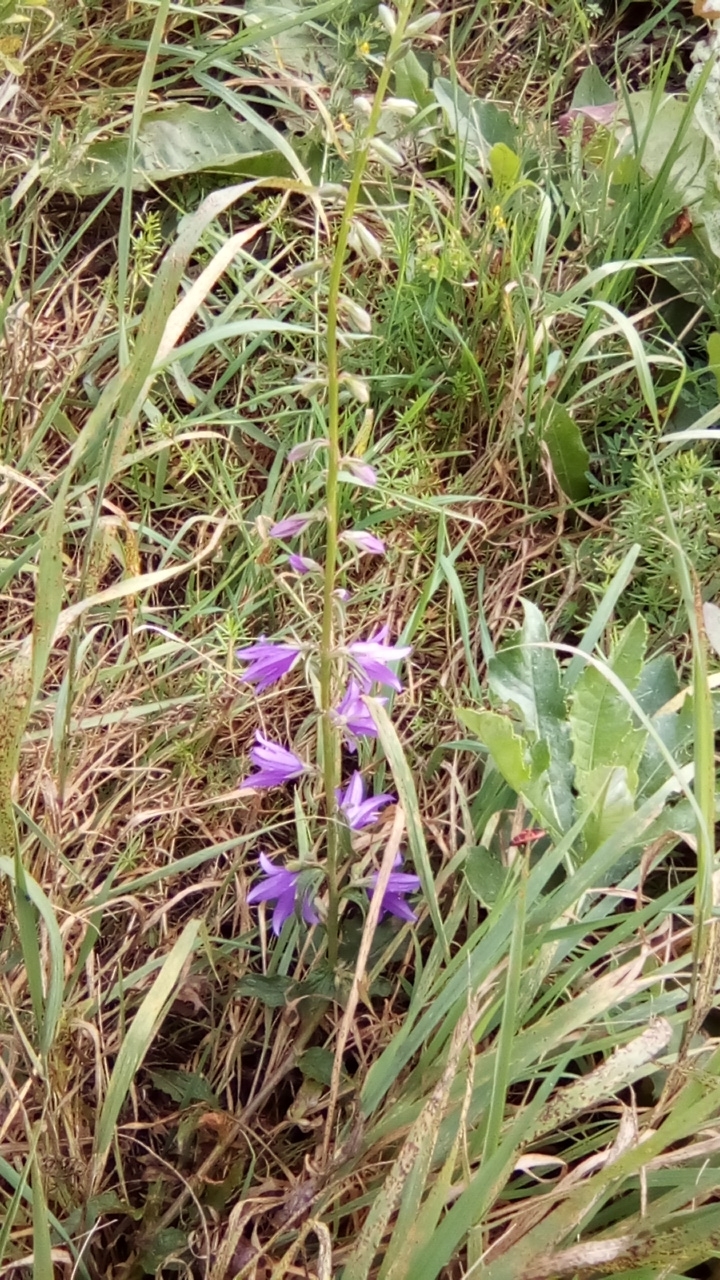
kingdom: Plantae
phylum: Tracheophyta
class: Magnoliopsida
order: Asterales
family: Campanulaceae
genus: Campanula
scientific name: Campanula rapunculoides
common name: Creeping bellflower
